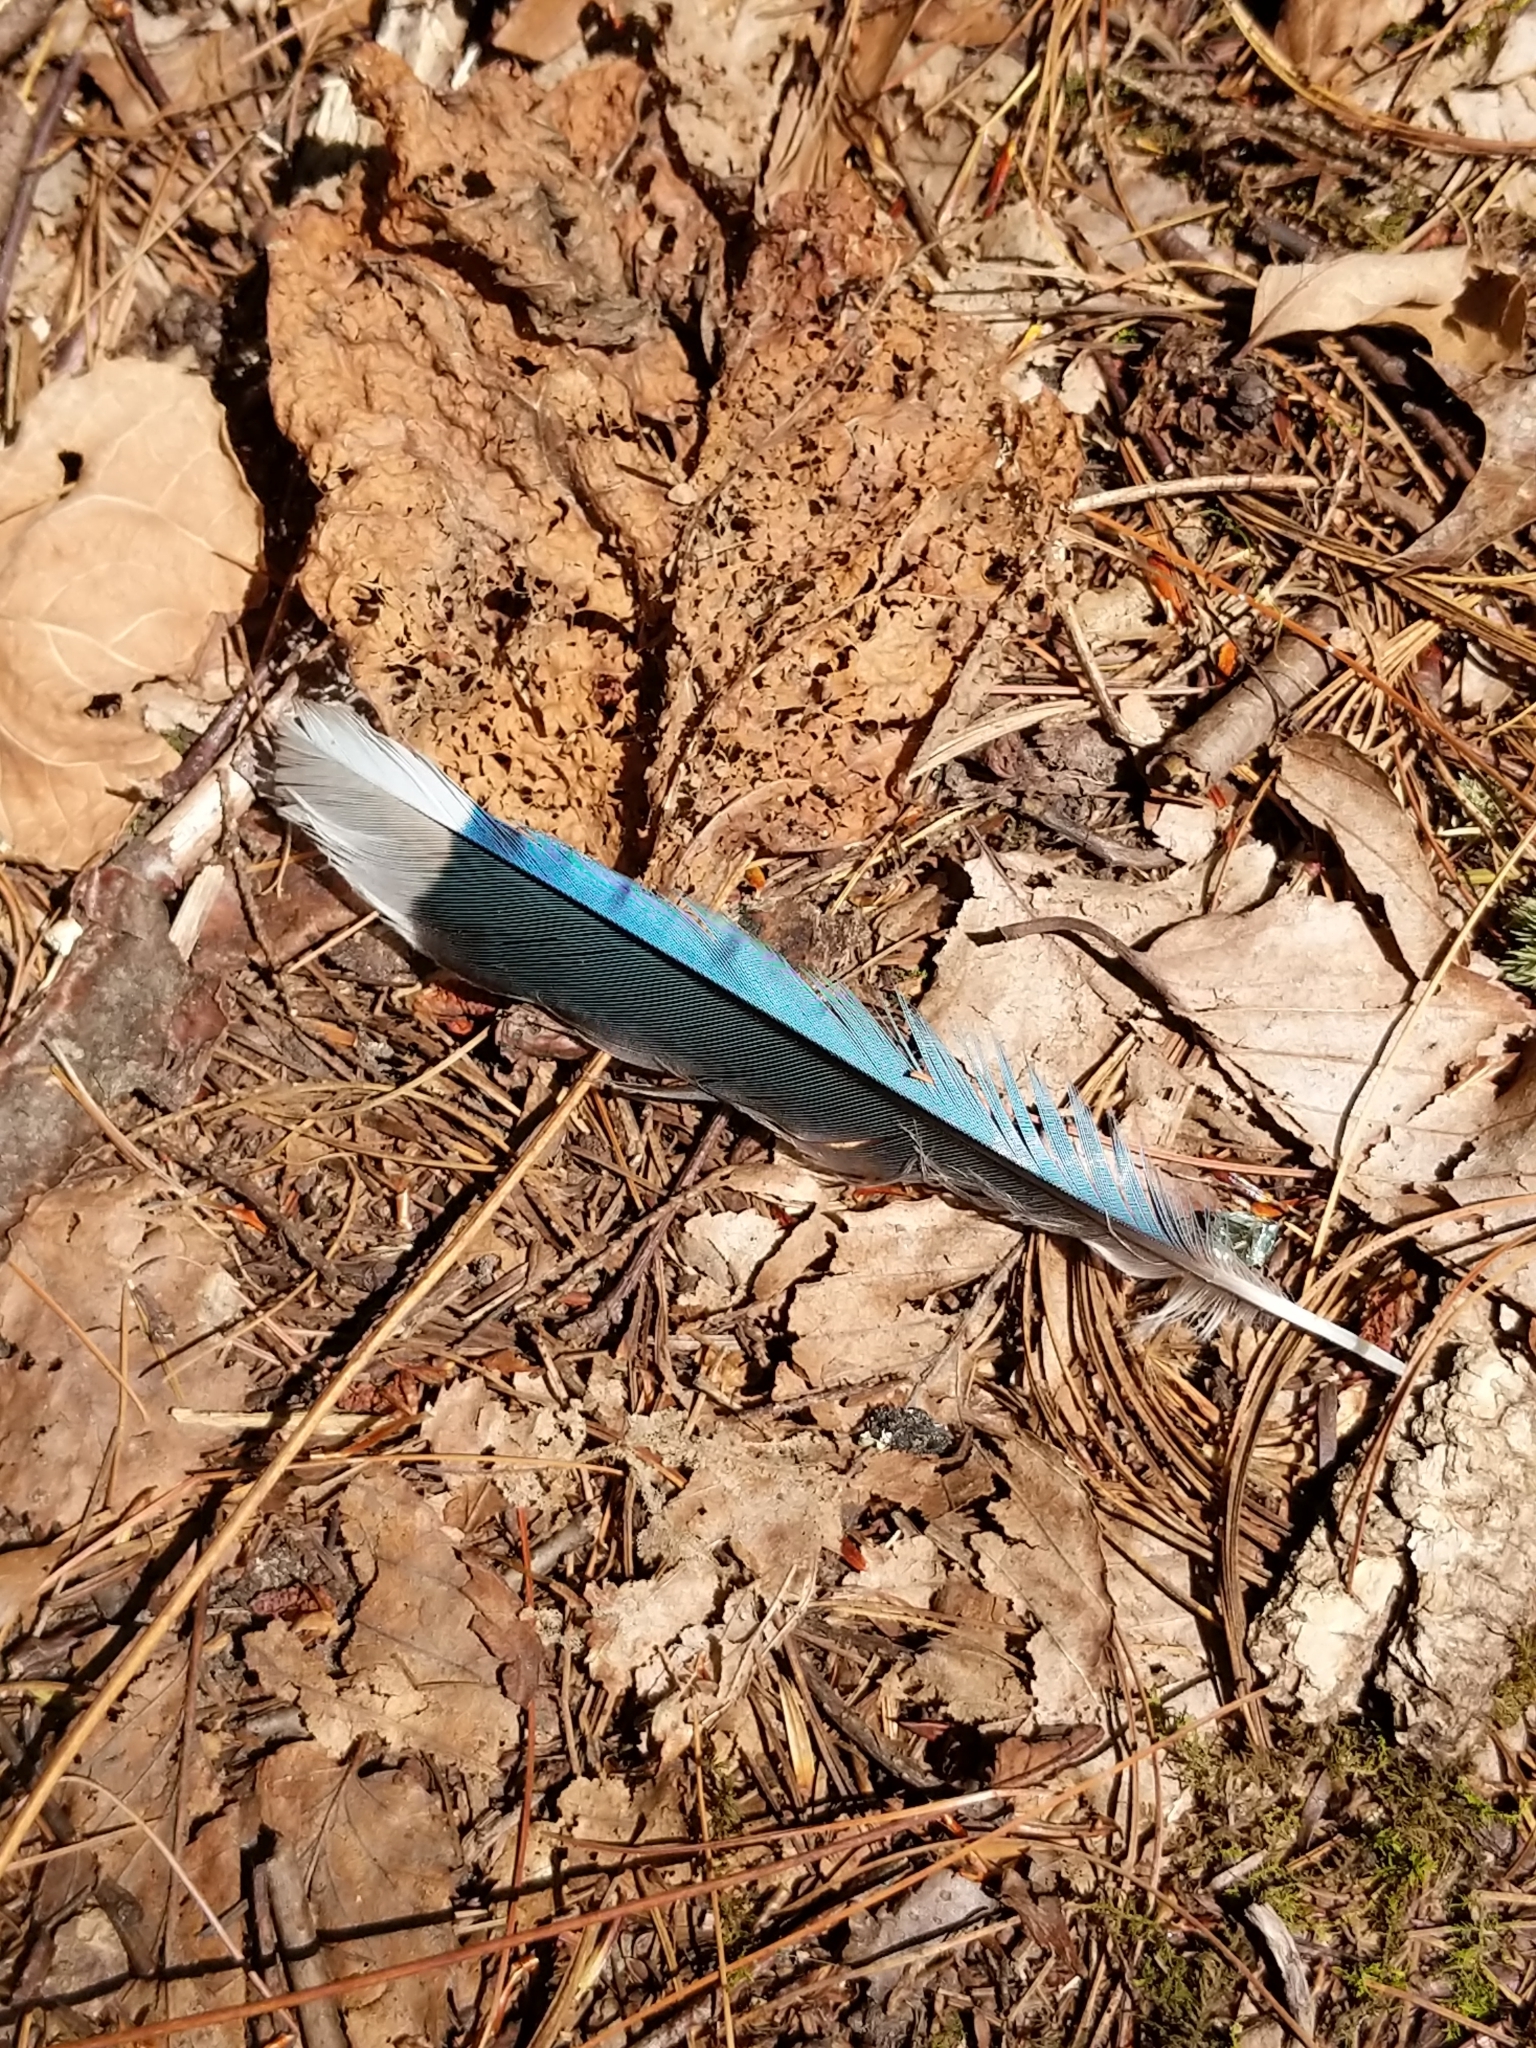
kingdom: Animalia
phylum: Chordata
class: Aves
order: Passeriformes
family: Corvidae
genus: Cyanocitta
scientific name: Cyanocitta cristata
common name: Blue jay
